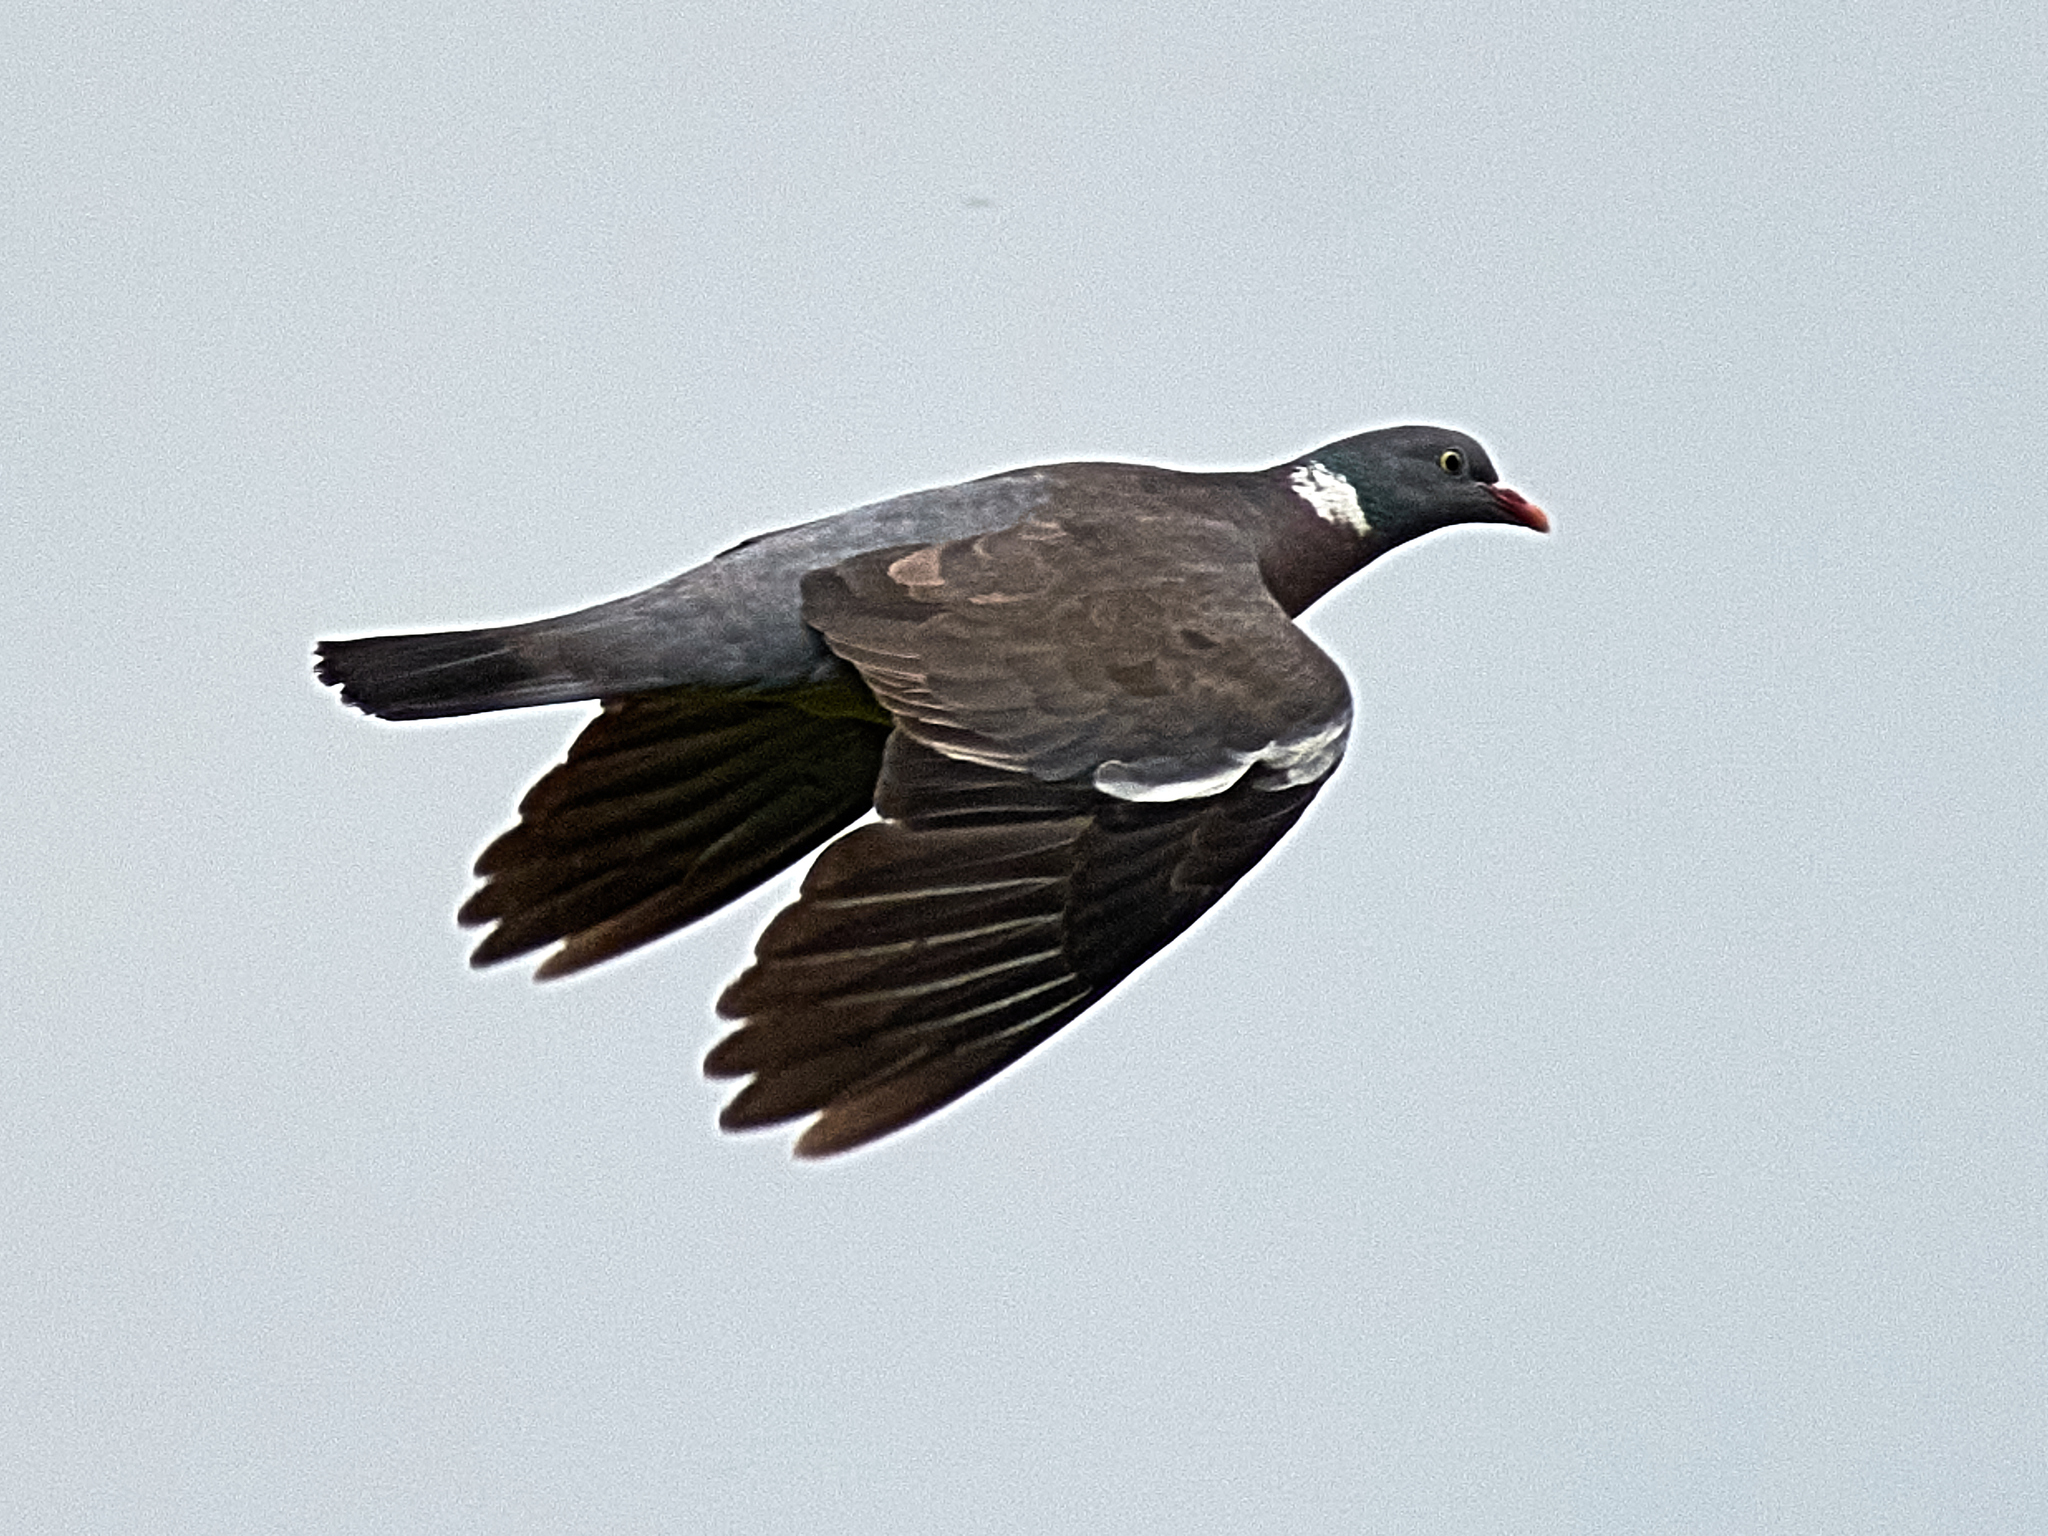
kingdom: Animalia
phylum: Chordata
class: Aves
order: Columbiformes
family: Columbidae
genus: Columba
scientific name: Columba palumbus
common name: Common wood pigeon
